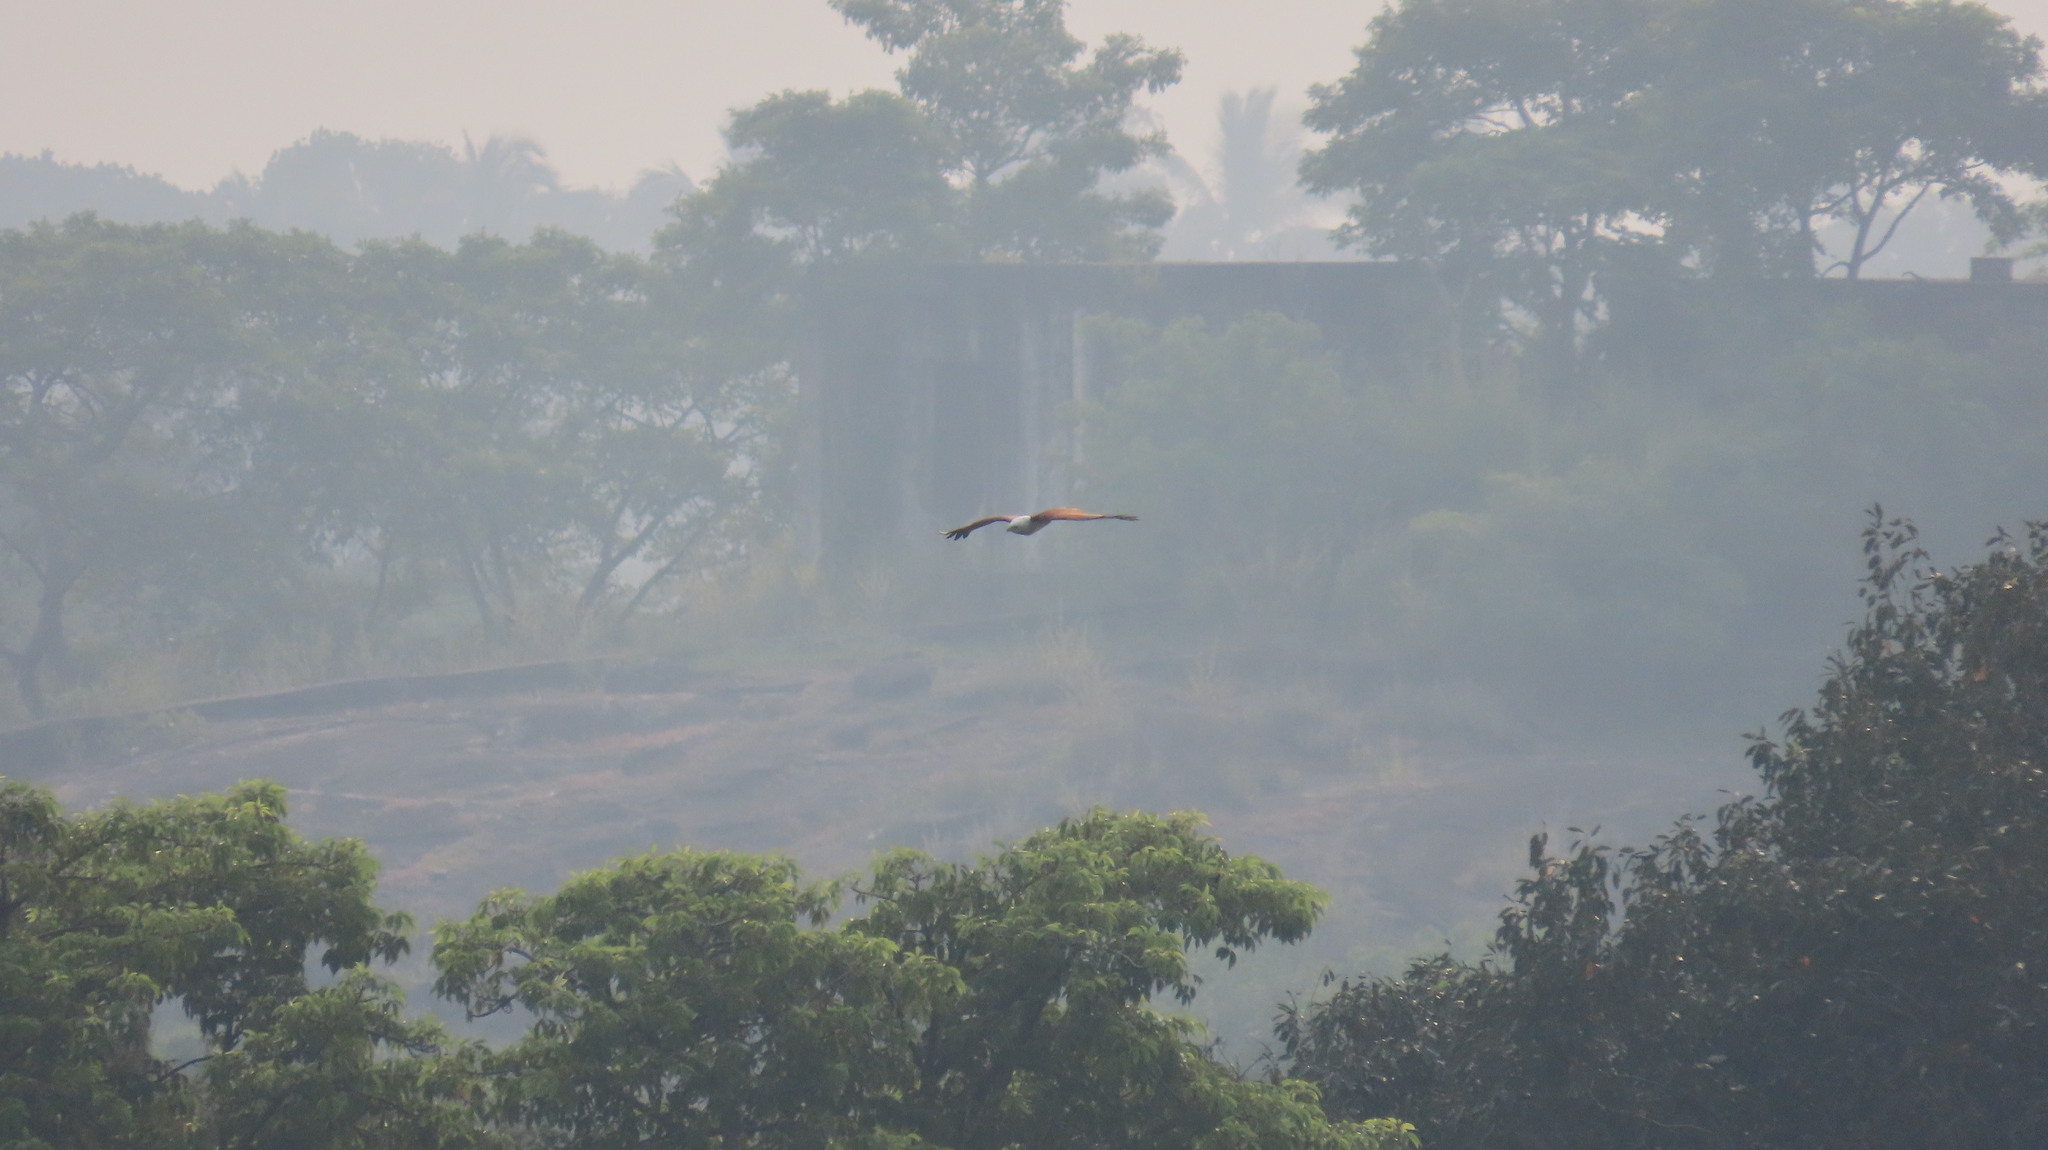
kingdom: Animalia
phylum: Chordata
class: Aves
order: Accipitriformes
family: Accipitridae
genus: Haliastur
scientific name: Haliastur indus
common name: Brahminy kite
